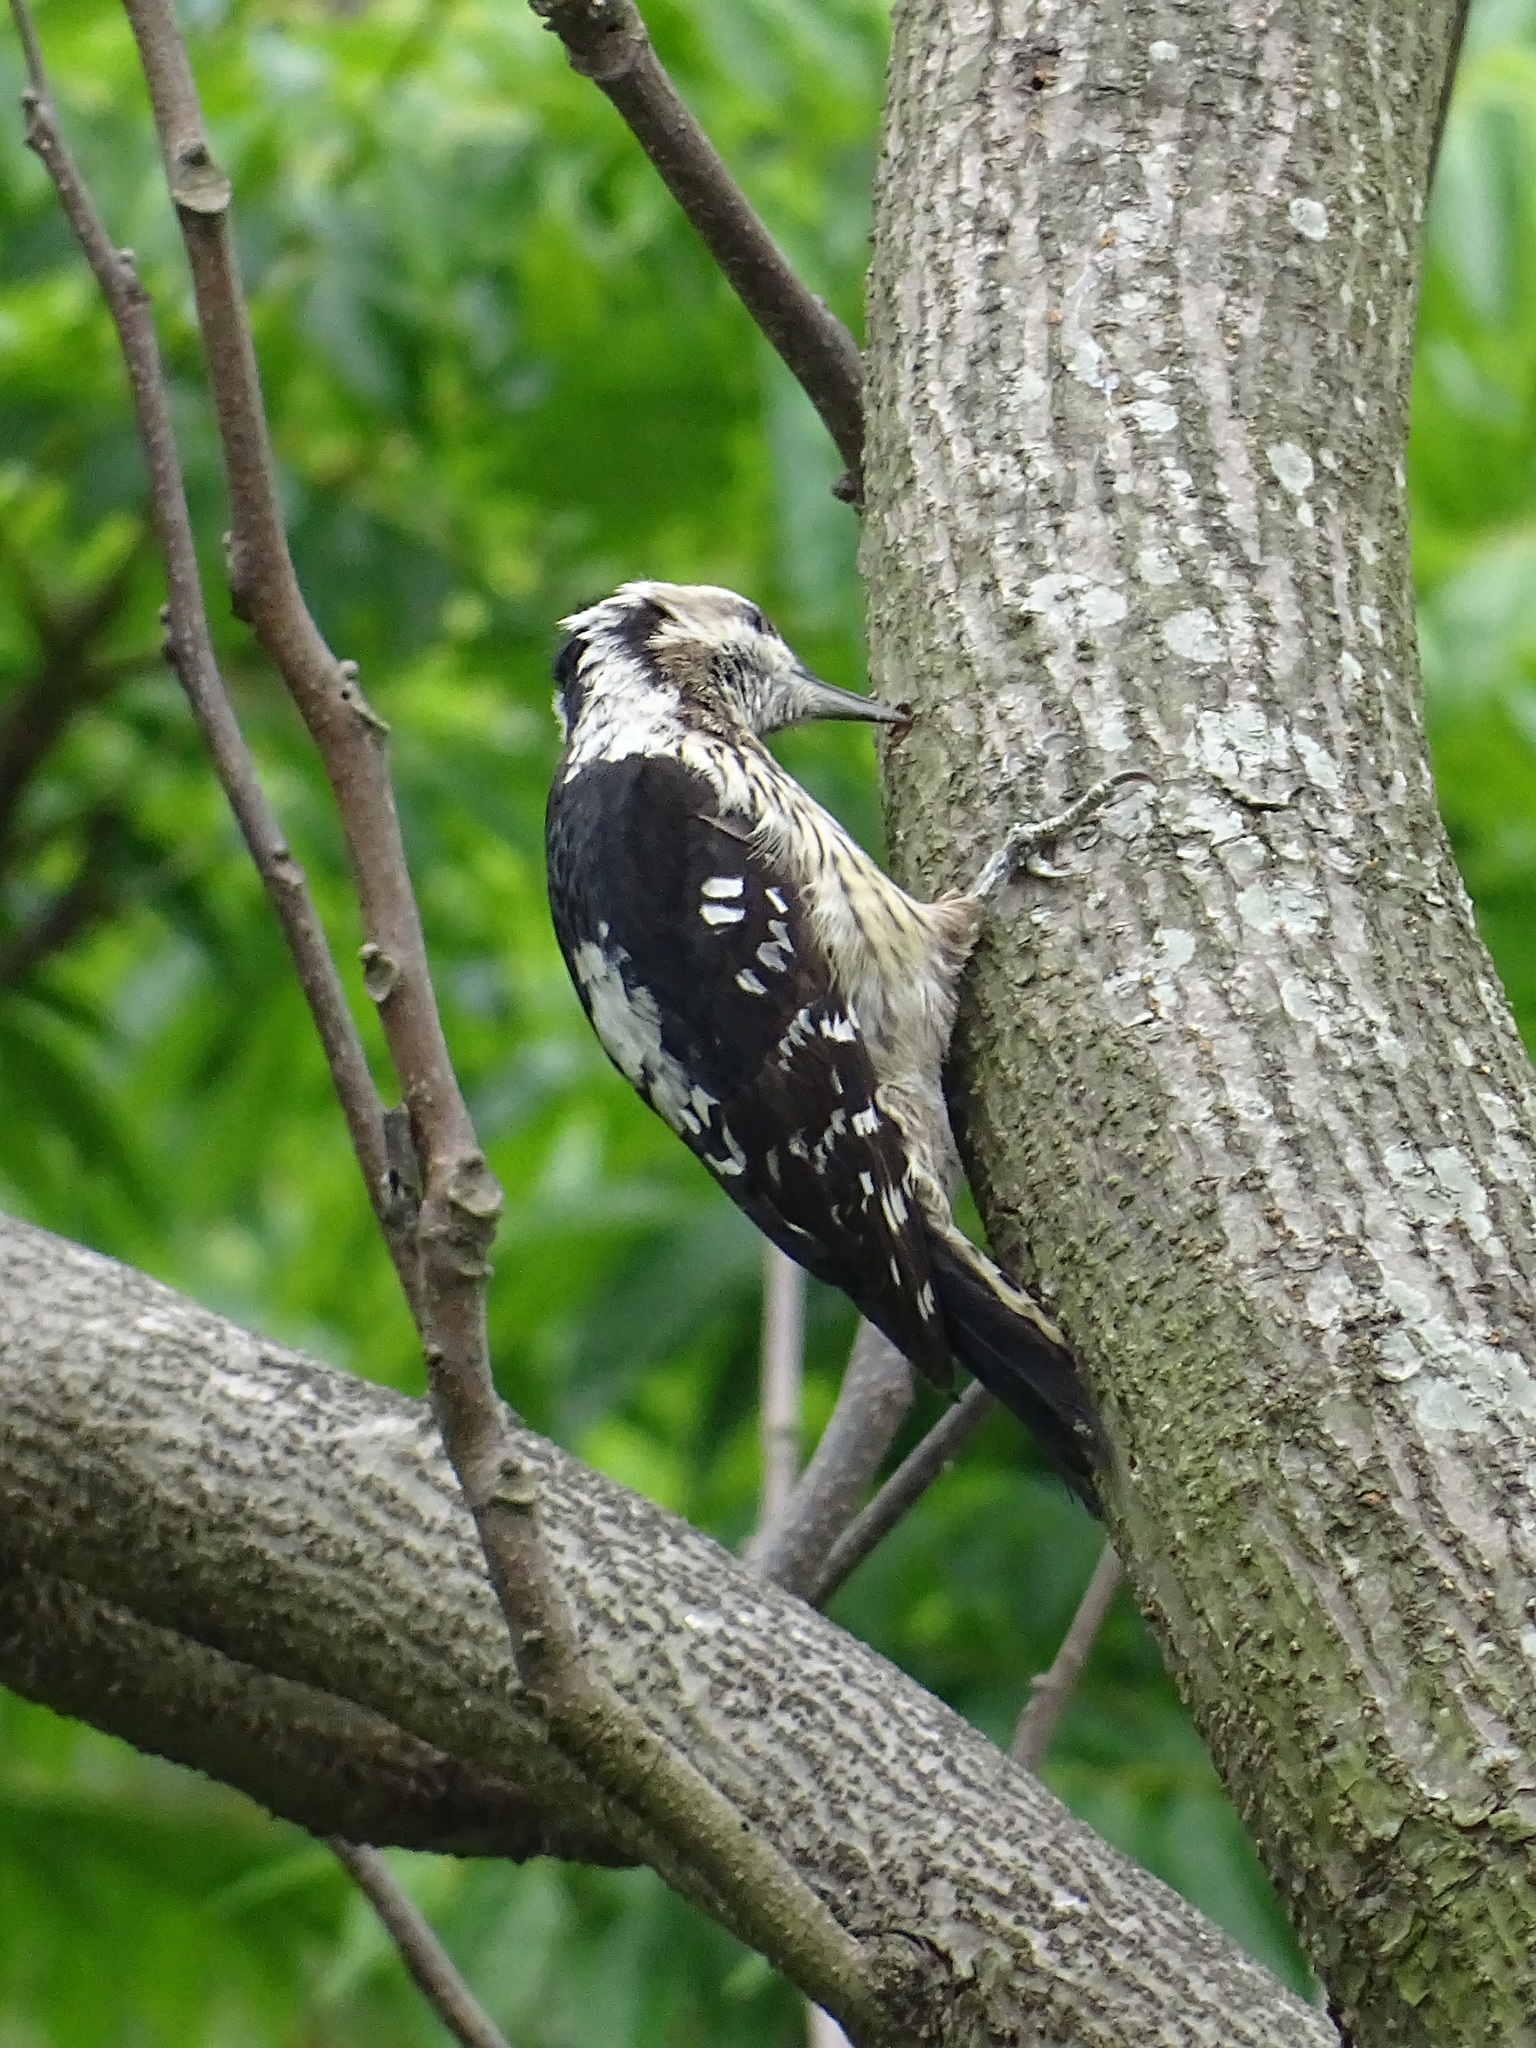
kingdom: Animalia
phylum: Chordata
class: Aves
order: Piciformes
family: Picidae
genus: Yungipicus
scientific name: Yungipicus canicapillus
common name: Grey-capped pygmy woodpecker
